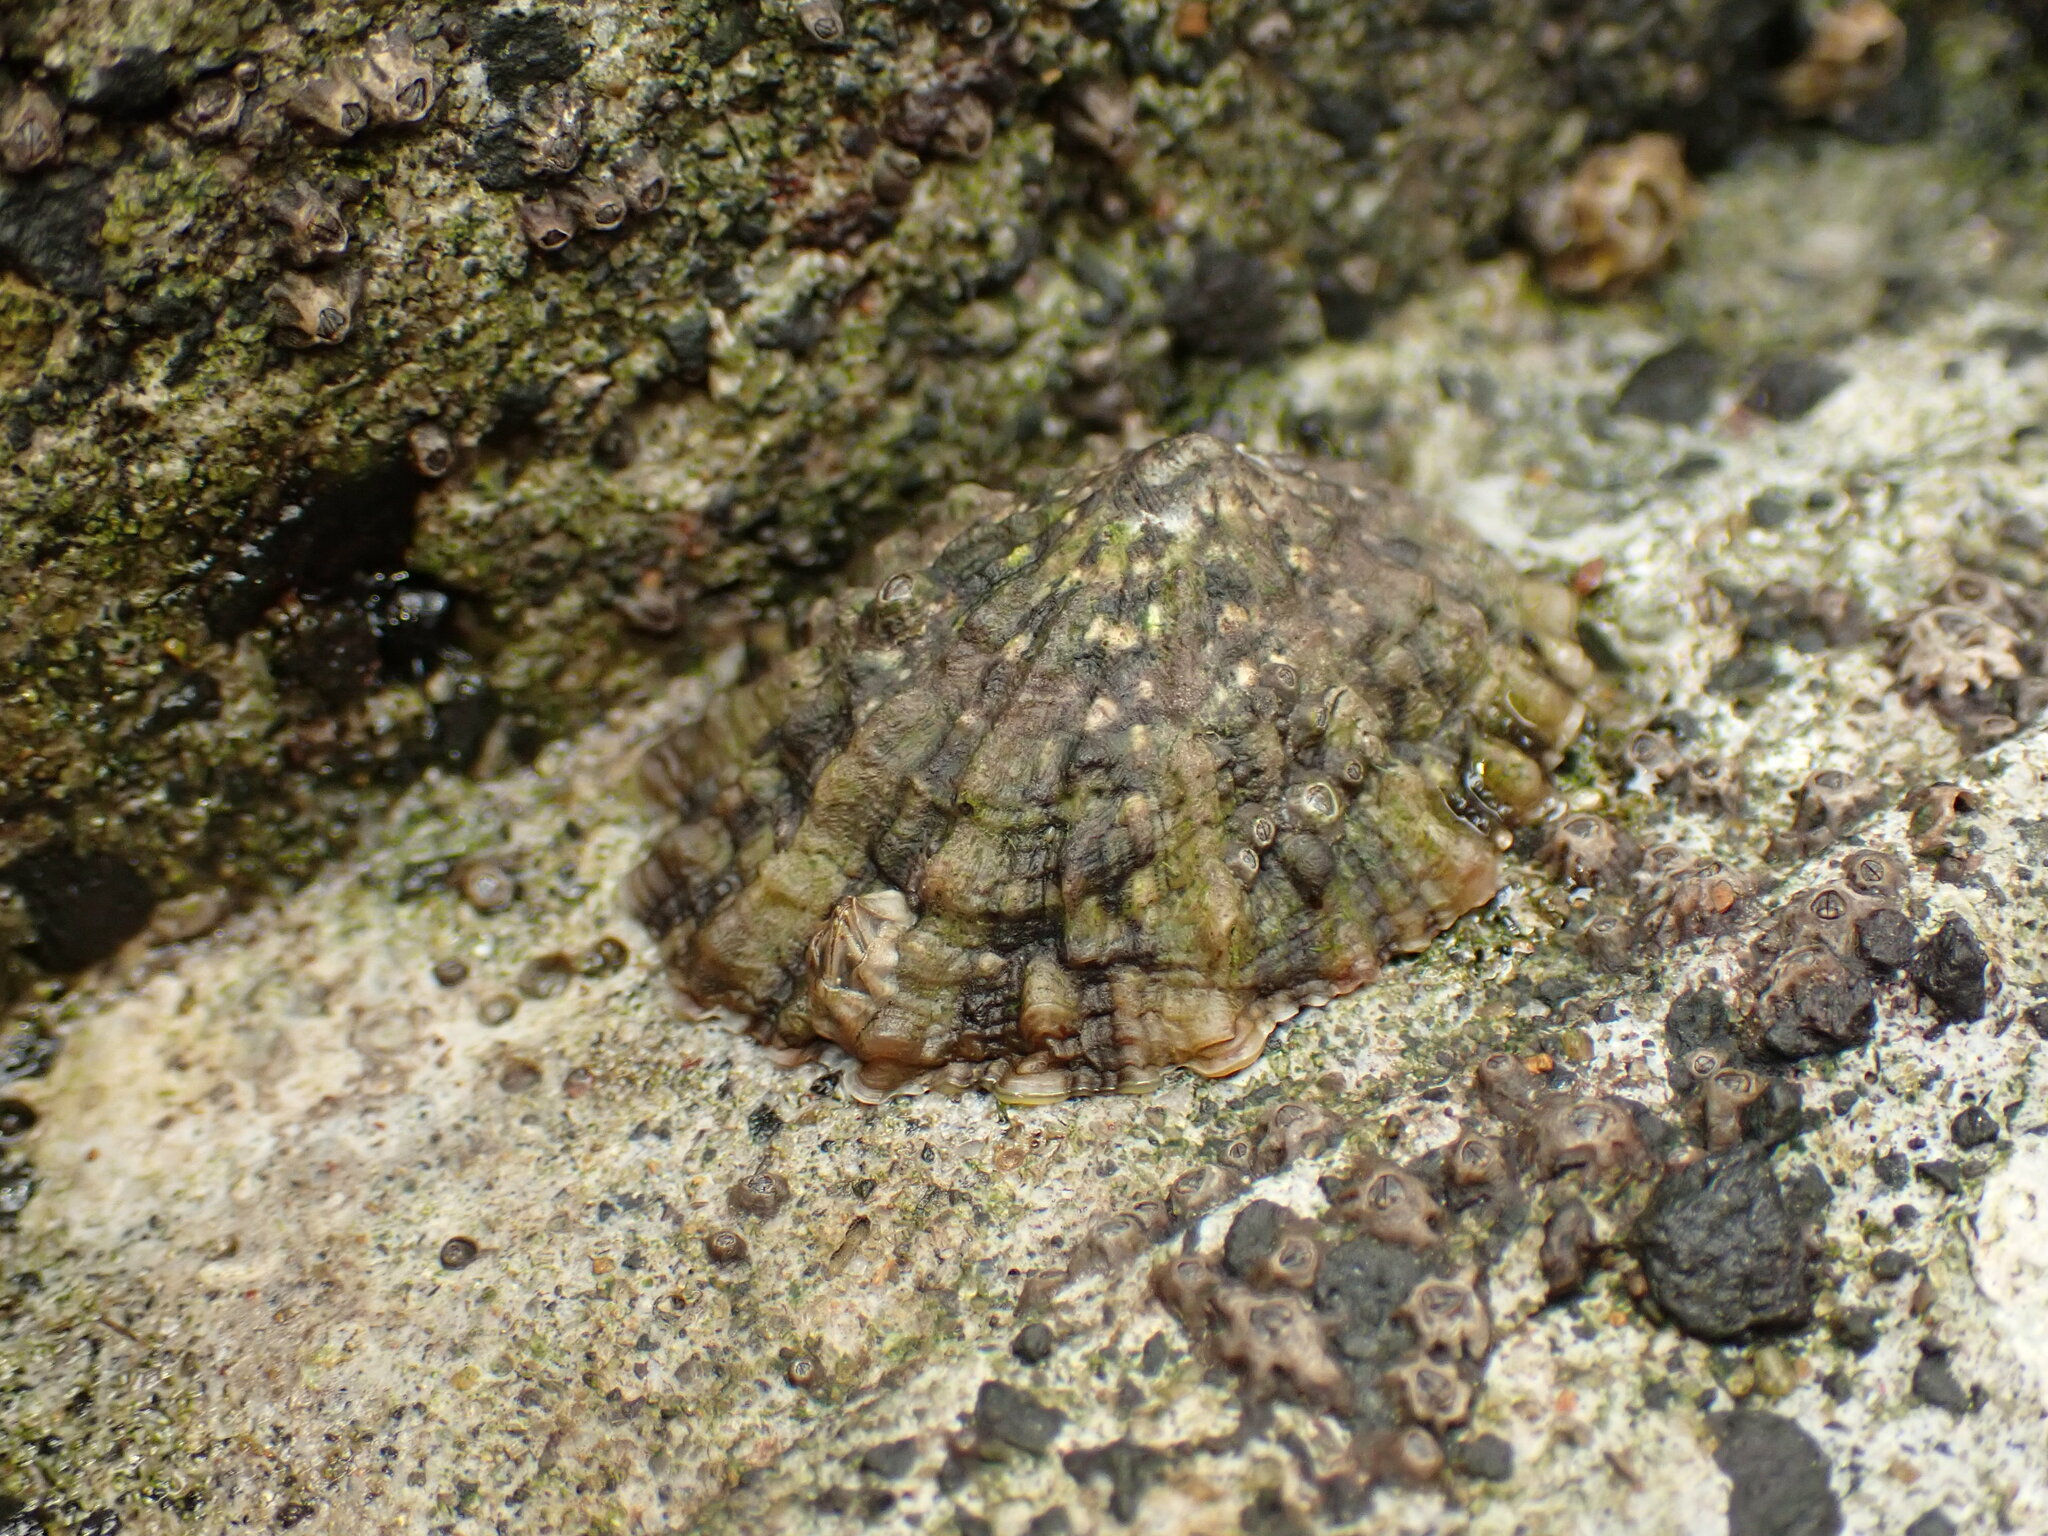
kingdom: Animalia
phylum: Mollusca
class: Gastropoda
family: Nacellidae
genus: Cellana
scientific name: Cellana ornata
